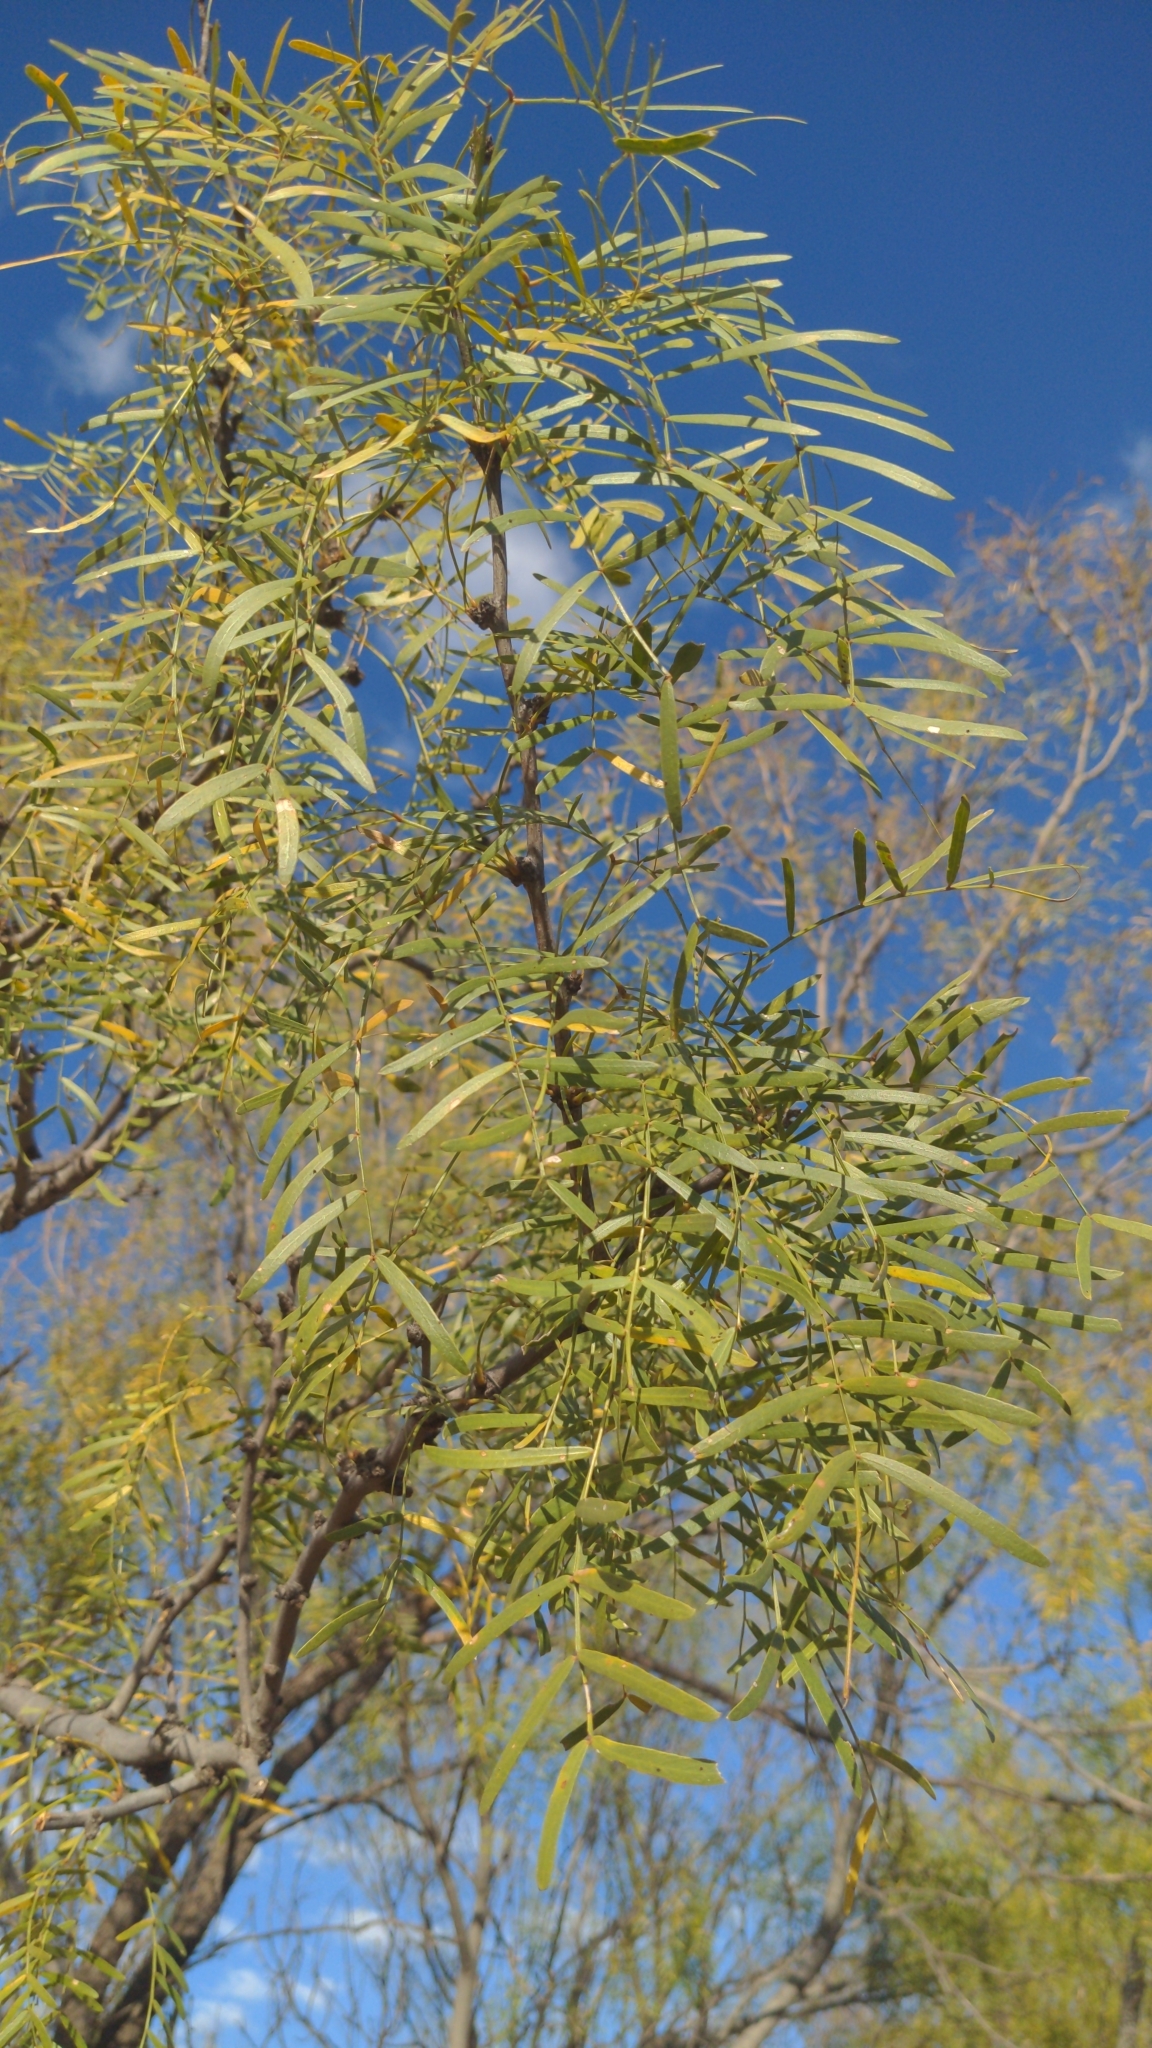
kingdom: Plantae
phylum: Tracheophyta
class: Magnoliopsida
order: Fabales
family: Fabaceae
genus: Prosopis
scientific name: Prosopis glandulosa
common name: Honey mesquite
